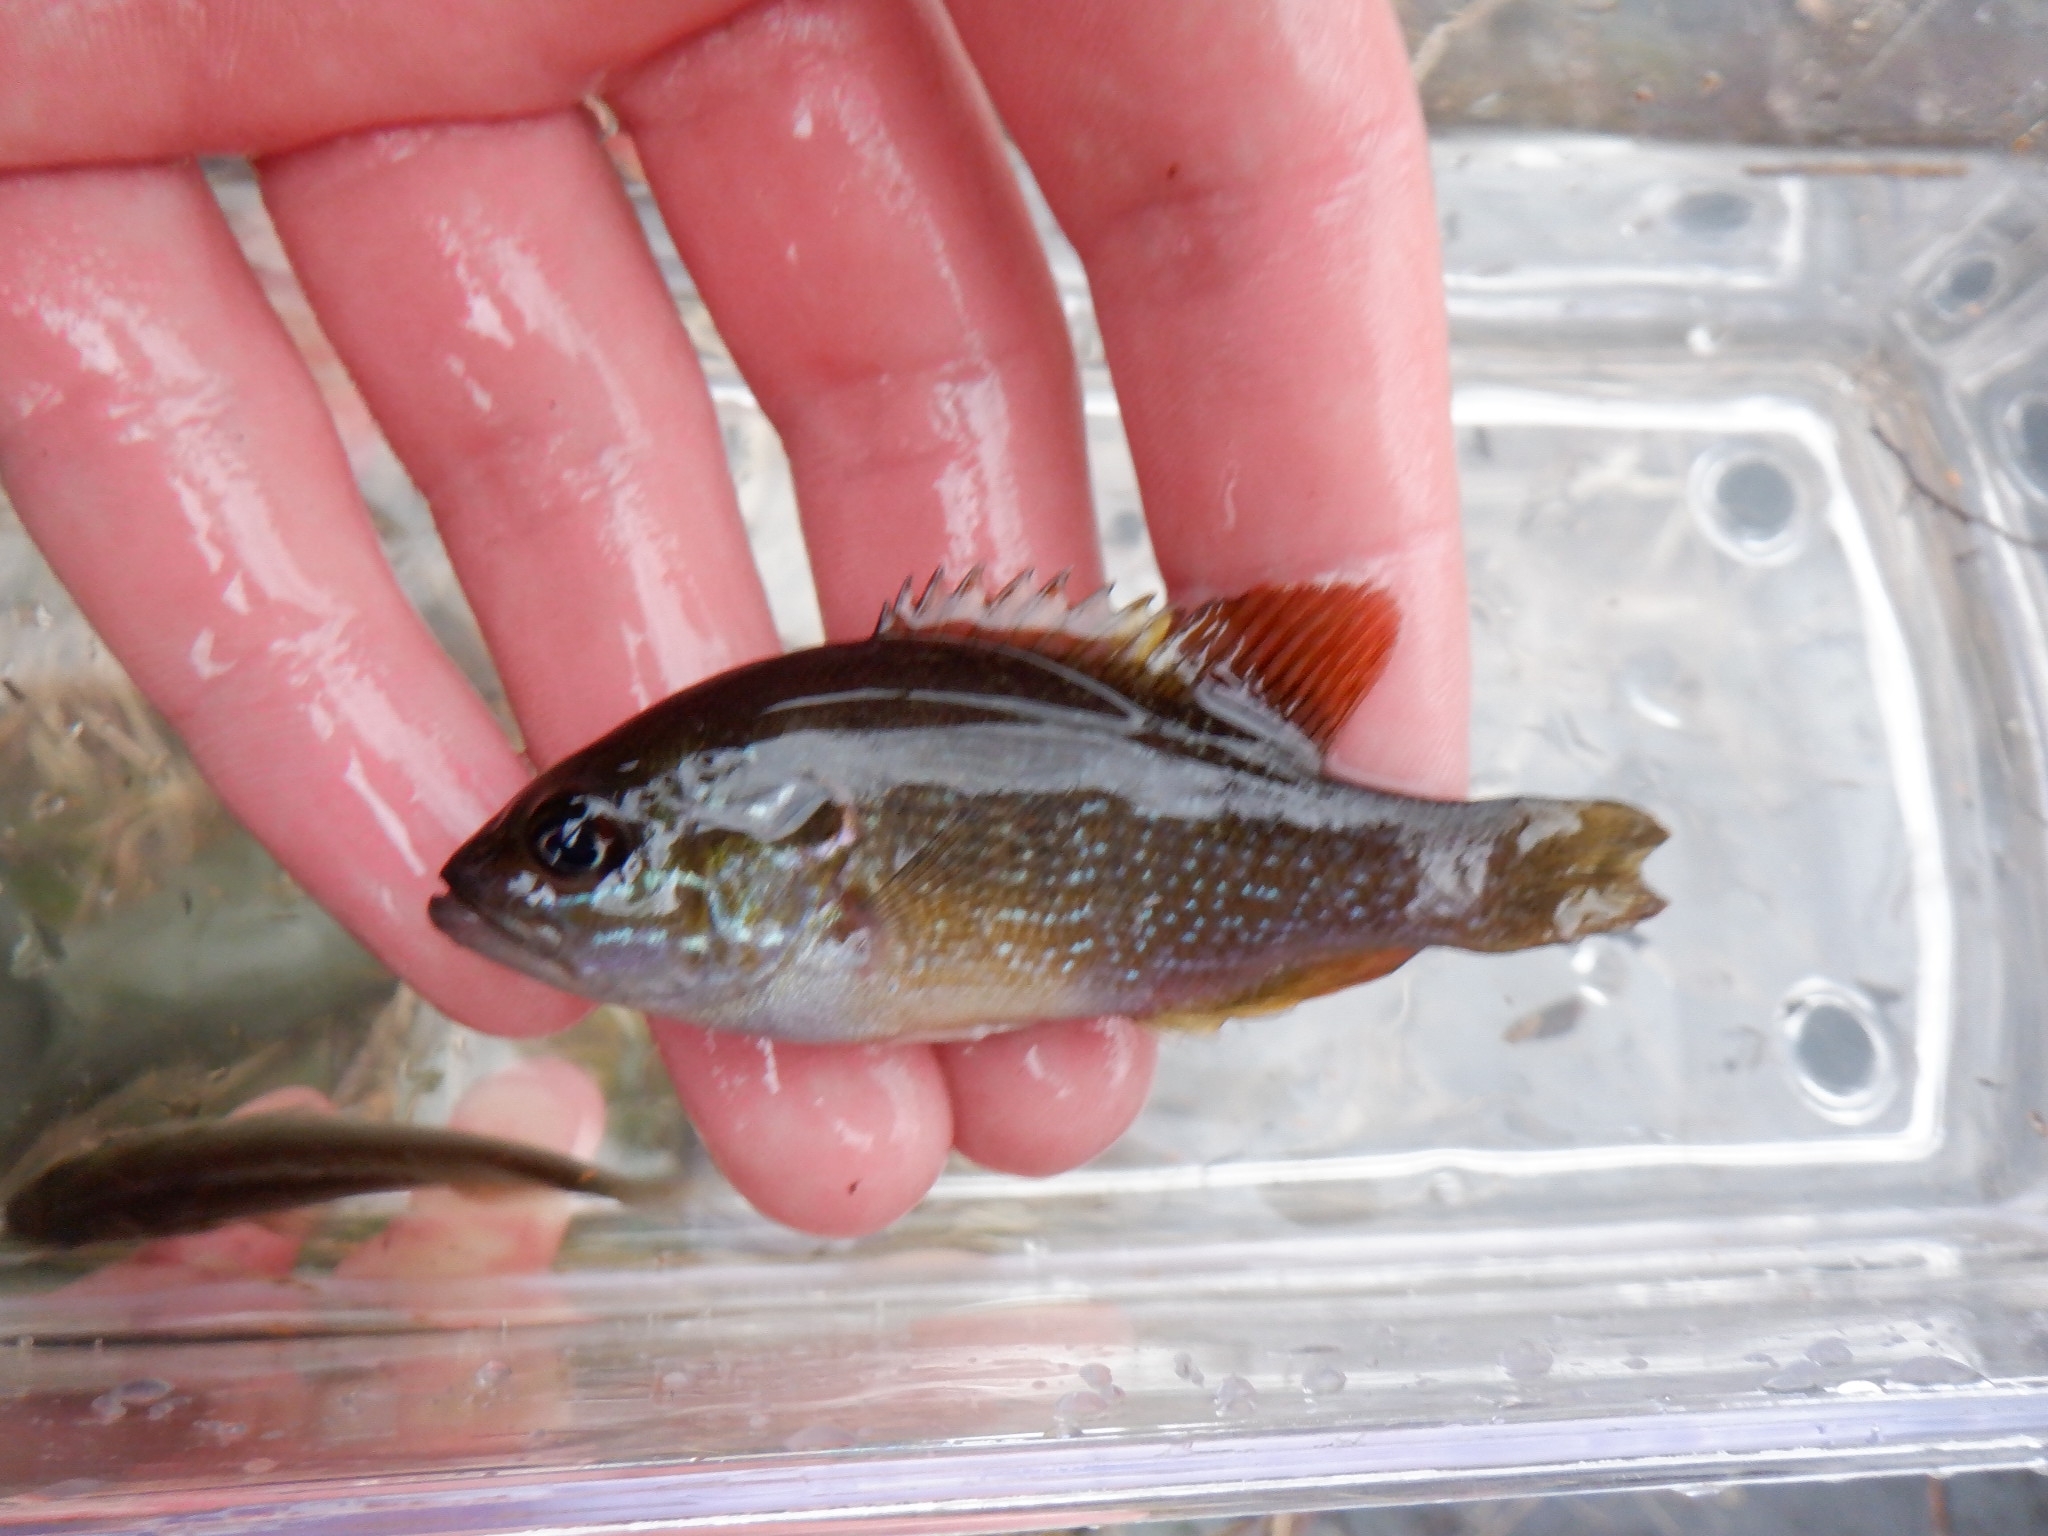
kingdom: Animalia
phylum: Chordata
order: Perciformes
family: Centrarchidae
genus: Lepomis
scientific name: Lepomis cyanellus
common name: Green sunfish
